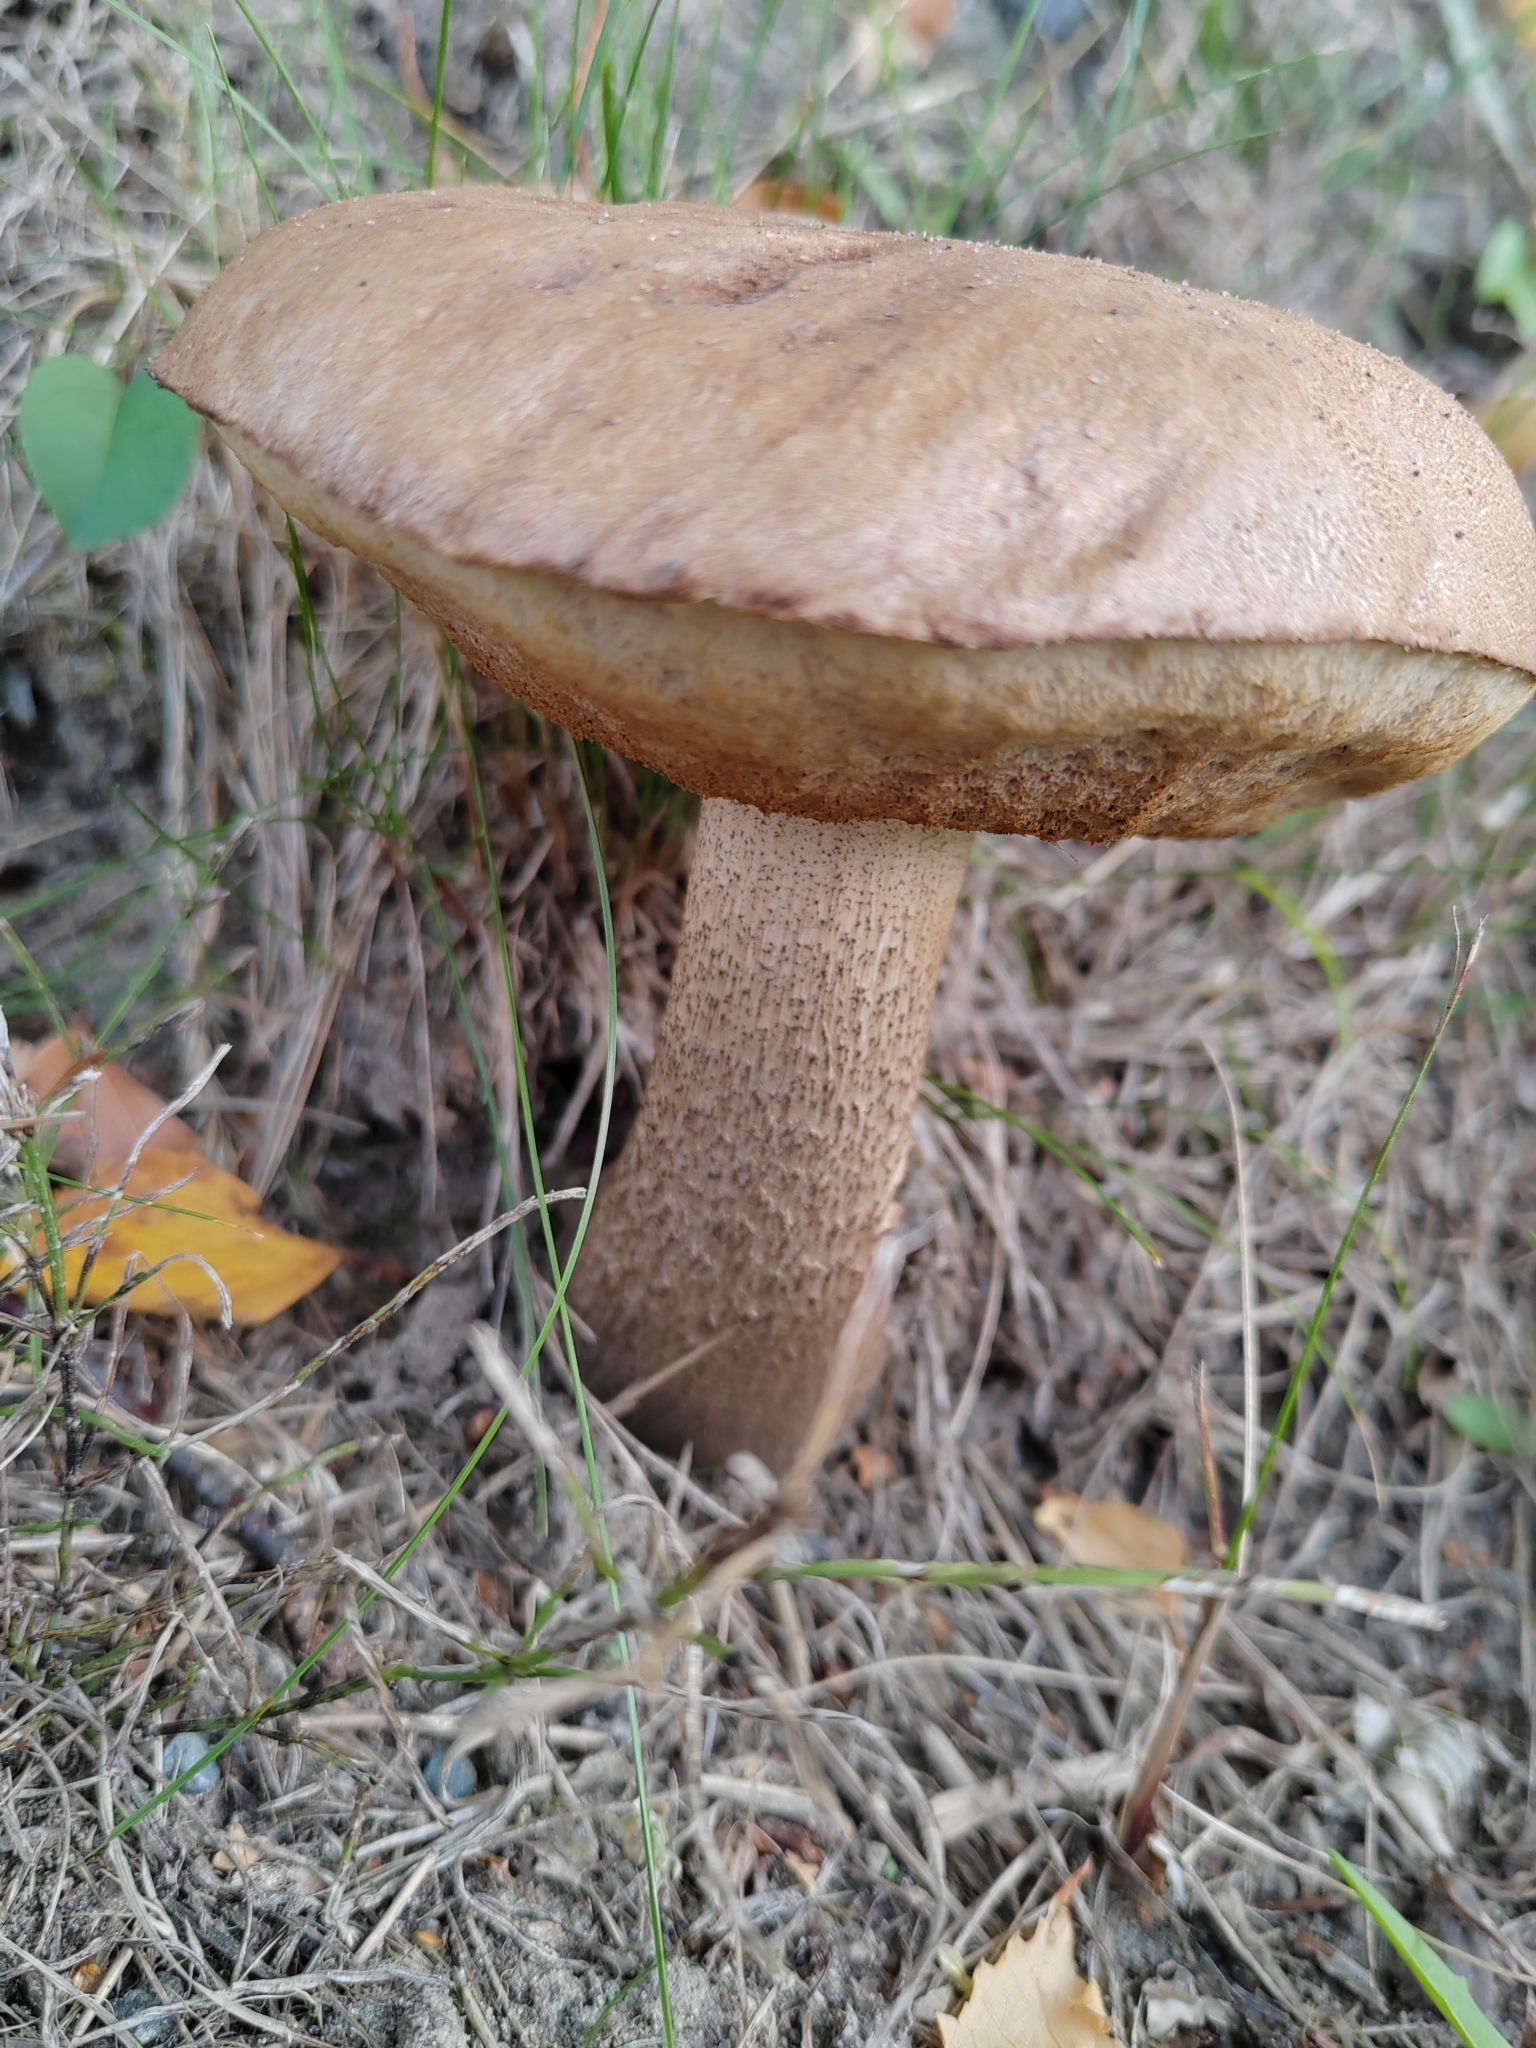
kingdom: Fungi
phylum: Basidiomycota
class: Agaricomycetes
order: Boletales
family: Boletaceae
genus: Leccinum
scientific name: Leccinum scabrum
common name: Blushing bolete
